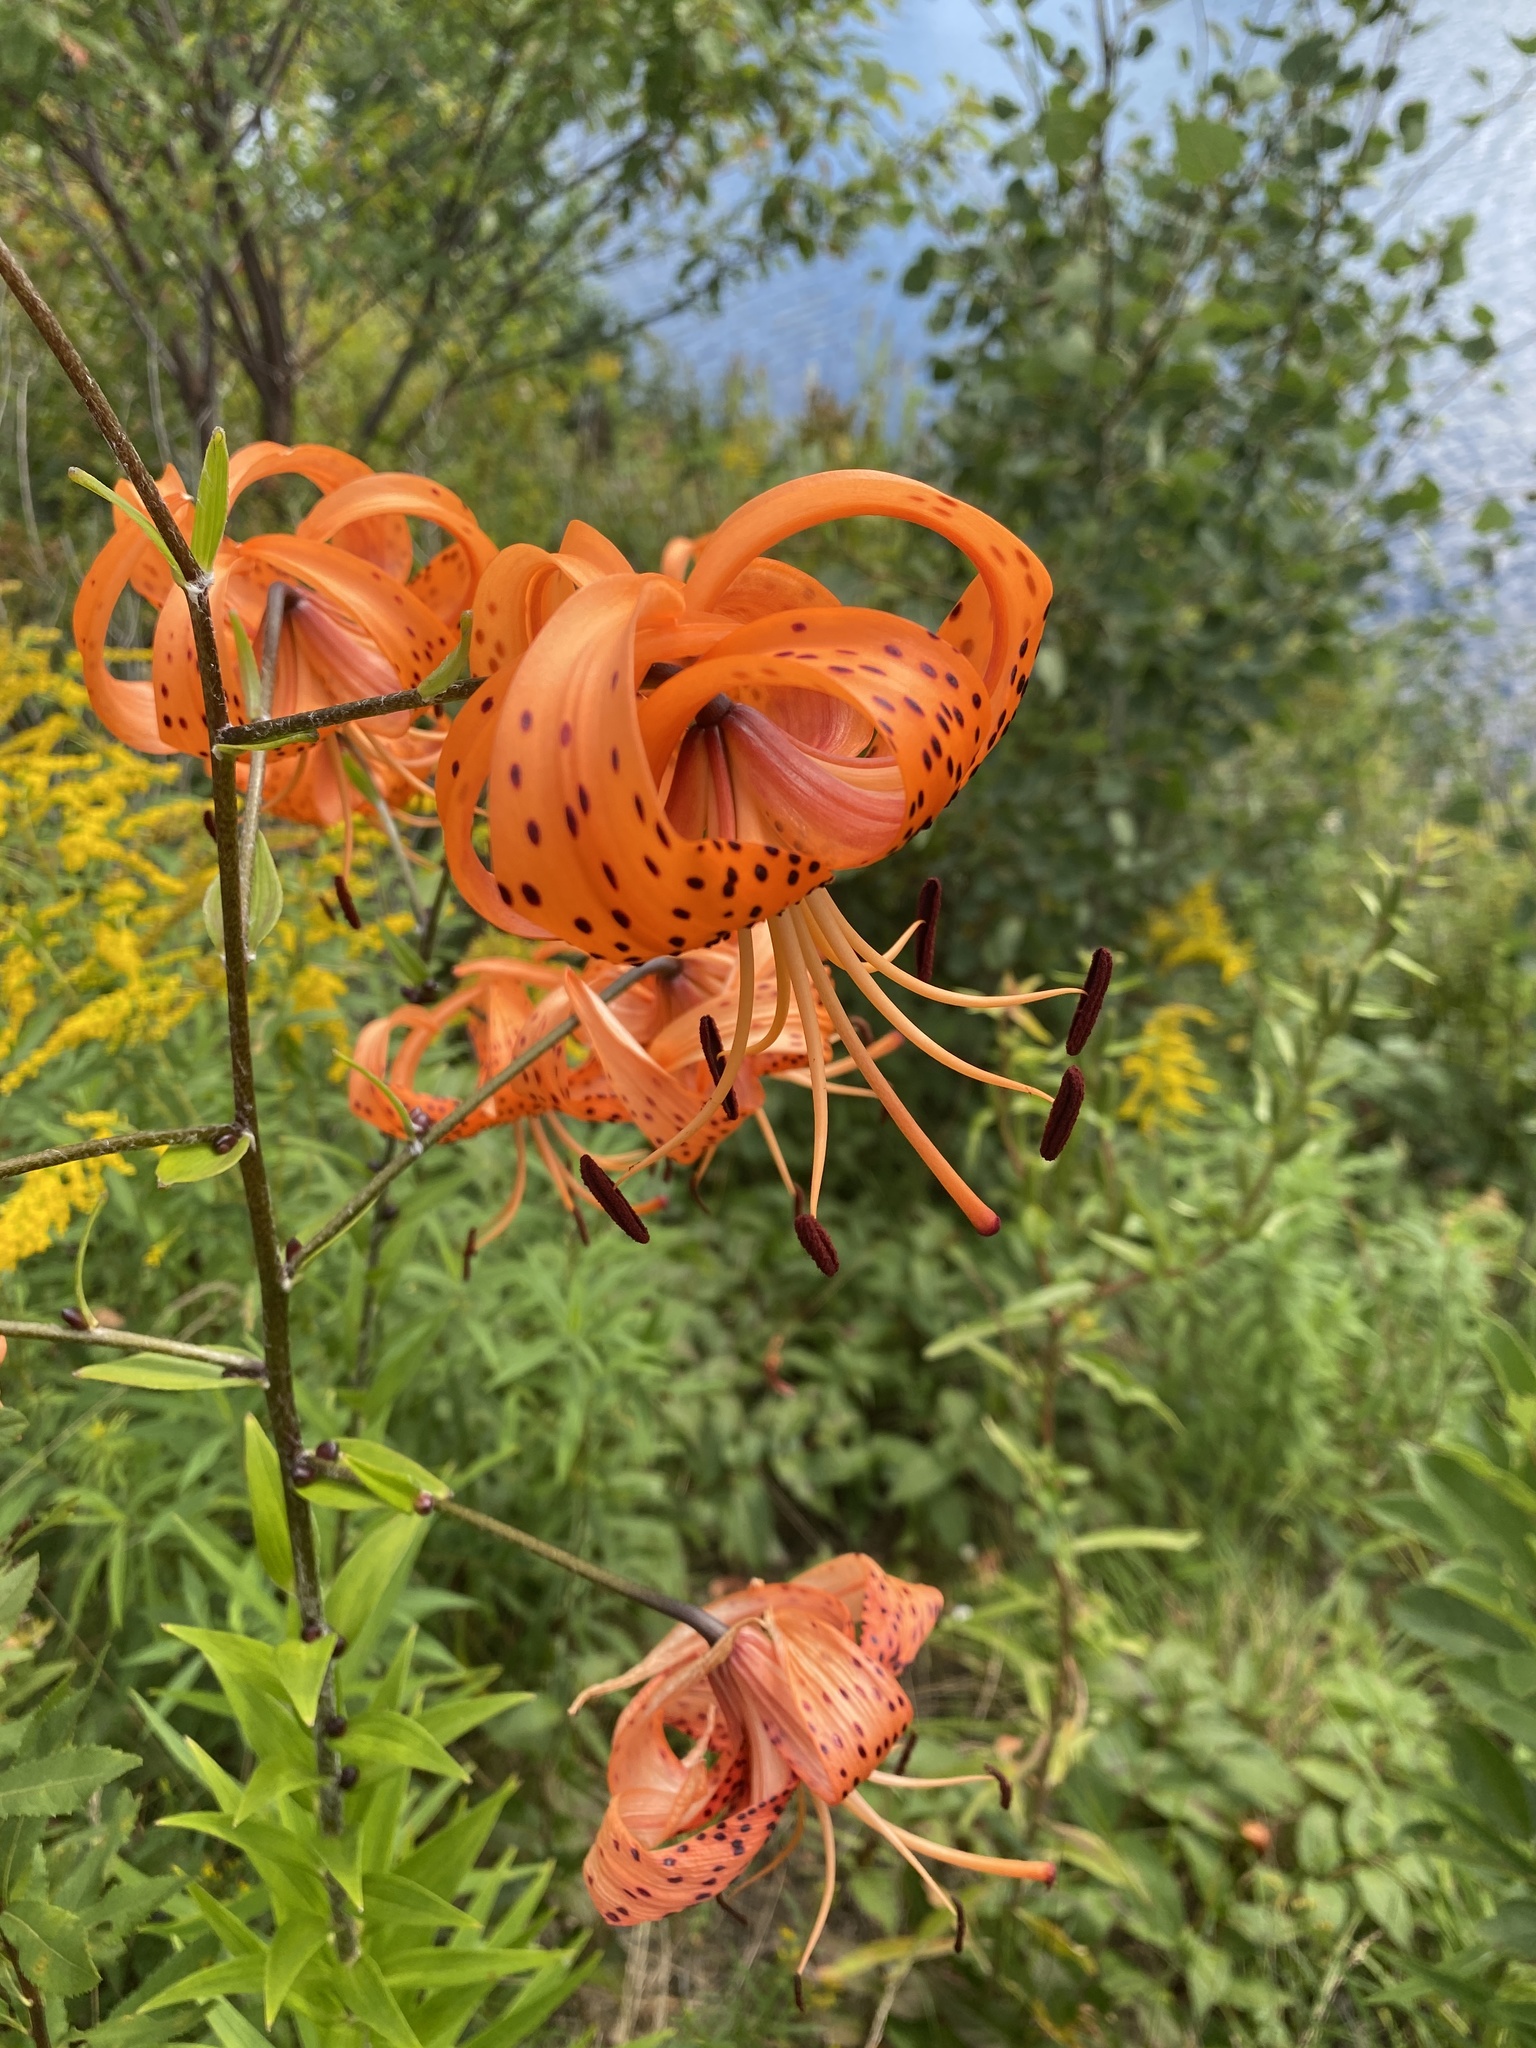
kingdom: Plantae
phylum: Tracheophyta
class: Liliopsida
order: Liliales
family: Liliaceae
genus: Lilium
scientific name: Lilium lancifolium
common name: Tiger lily
